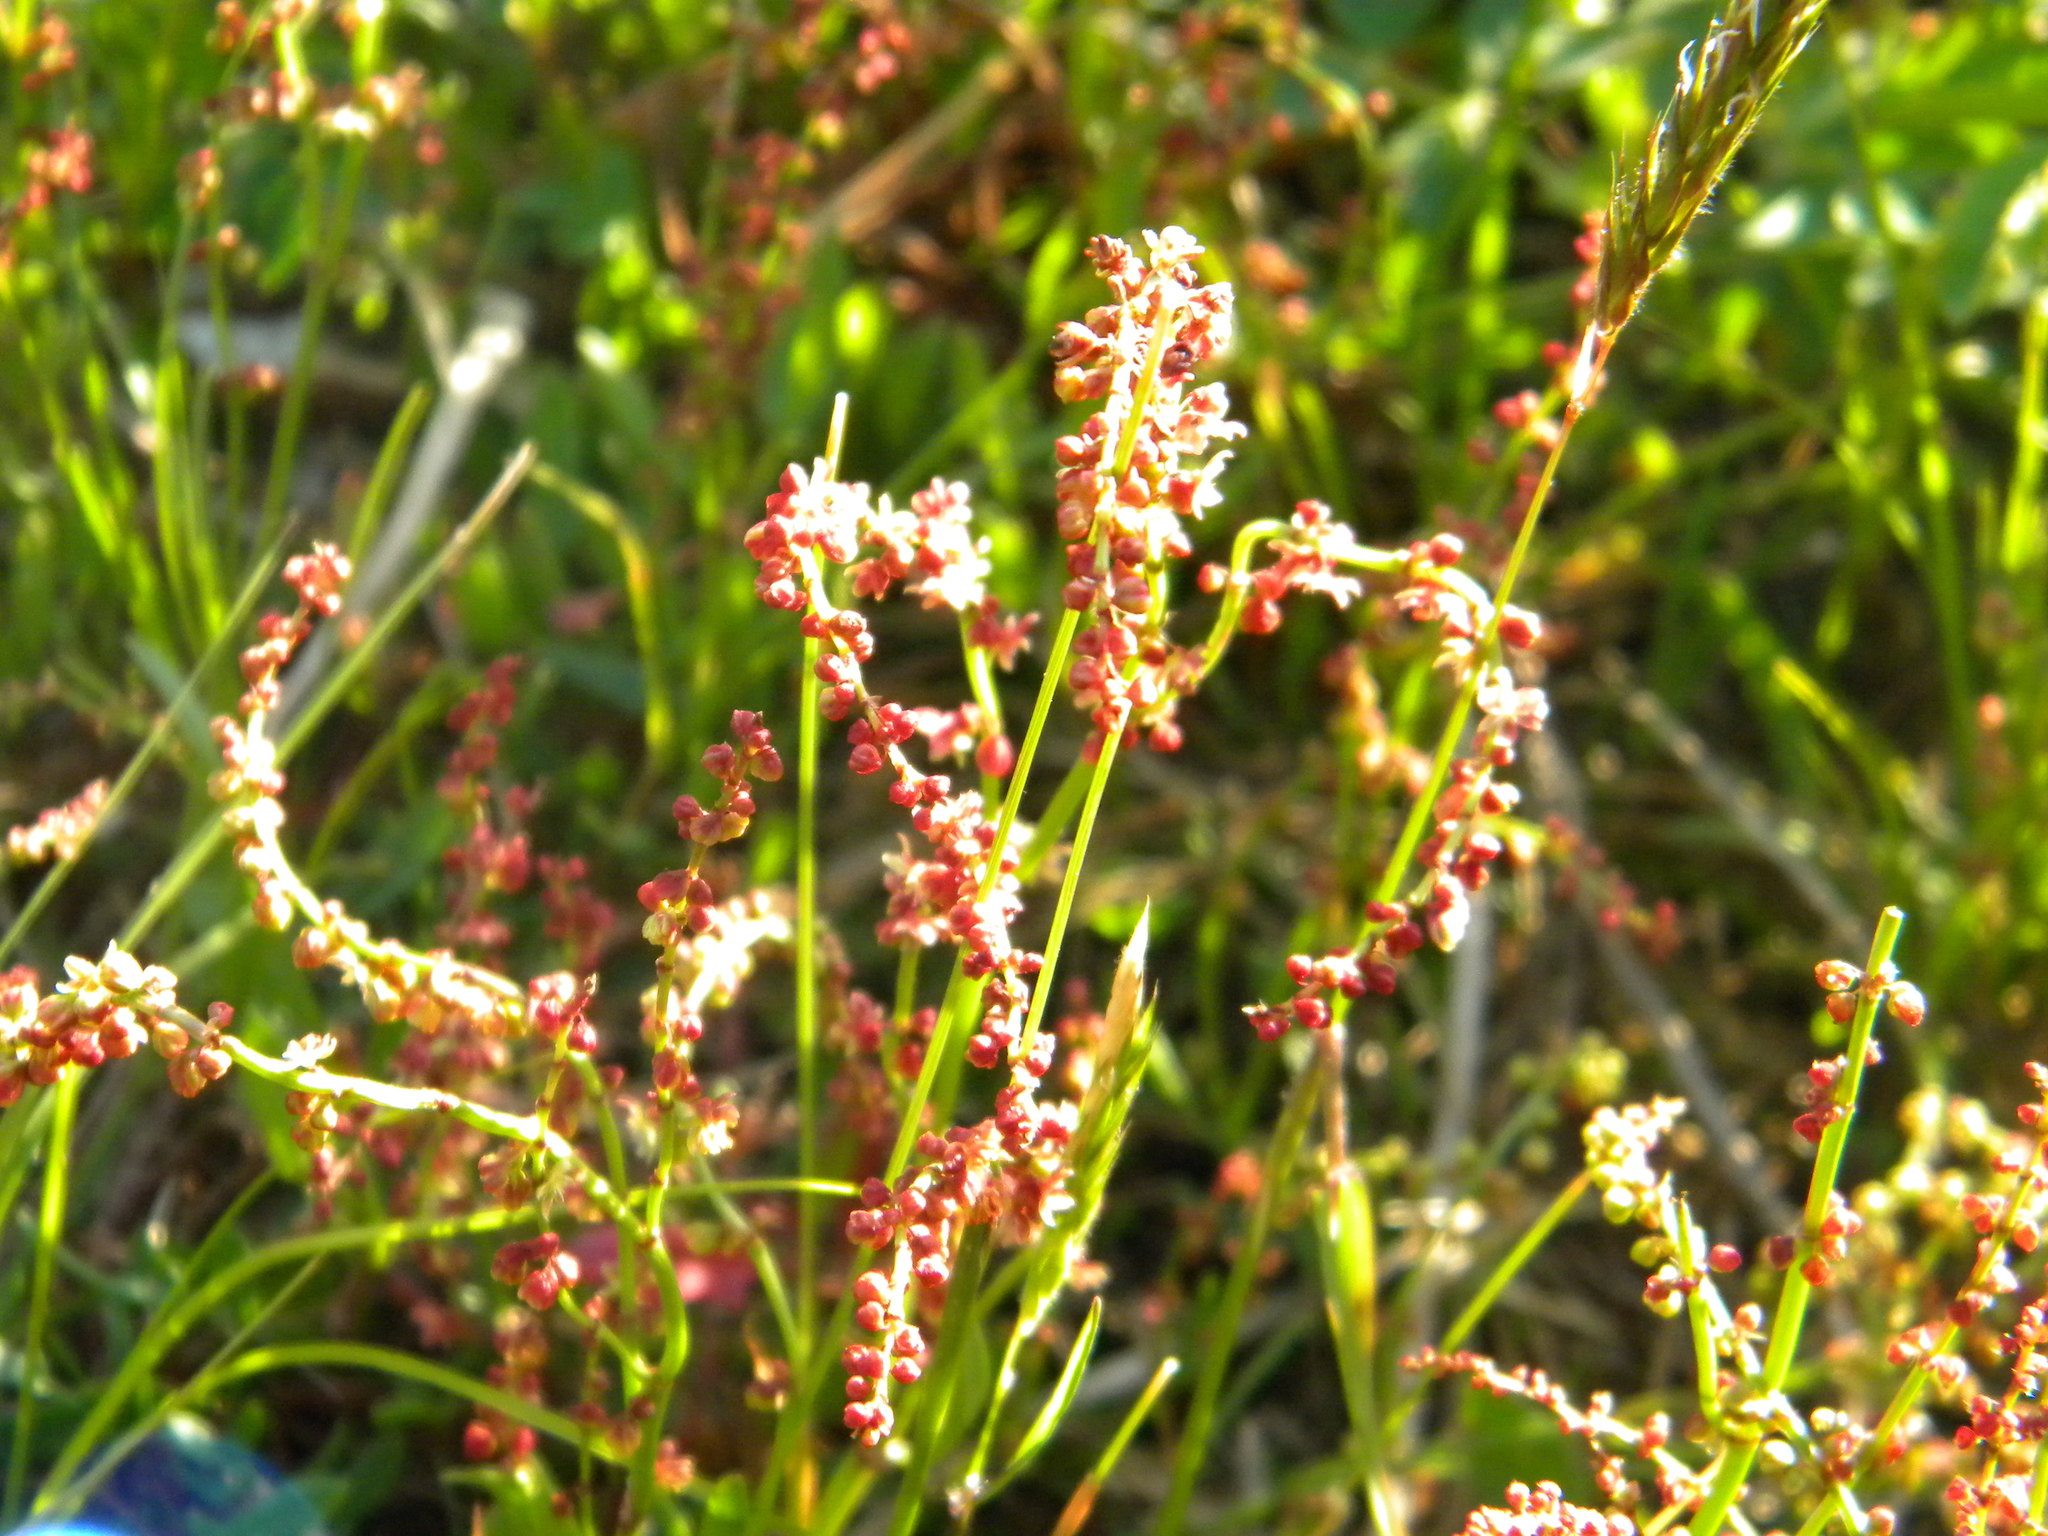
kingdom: Plantae
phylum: Tracheophyta
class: Magnoliopsida
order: Caryophyllales
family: Polygonaceae
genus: Rumex
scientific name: Rumex acetosella
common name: Common sheep sorrel
